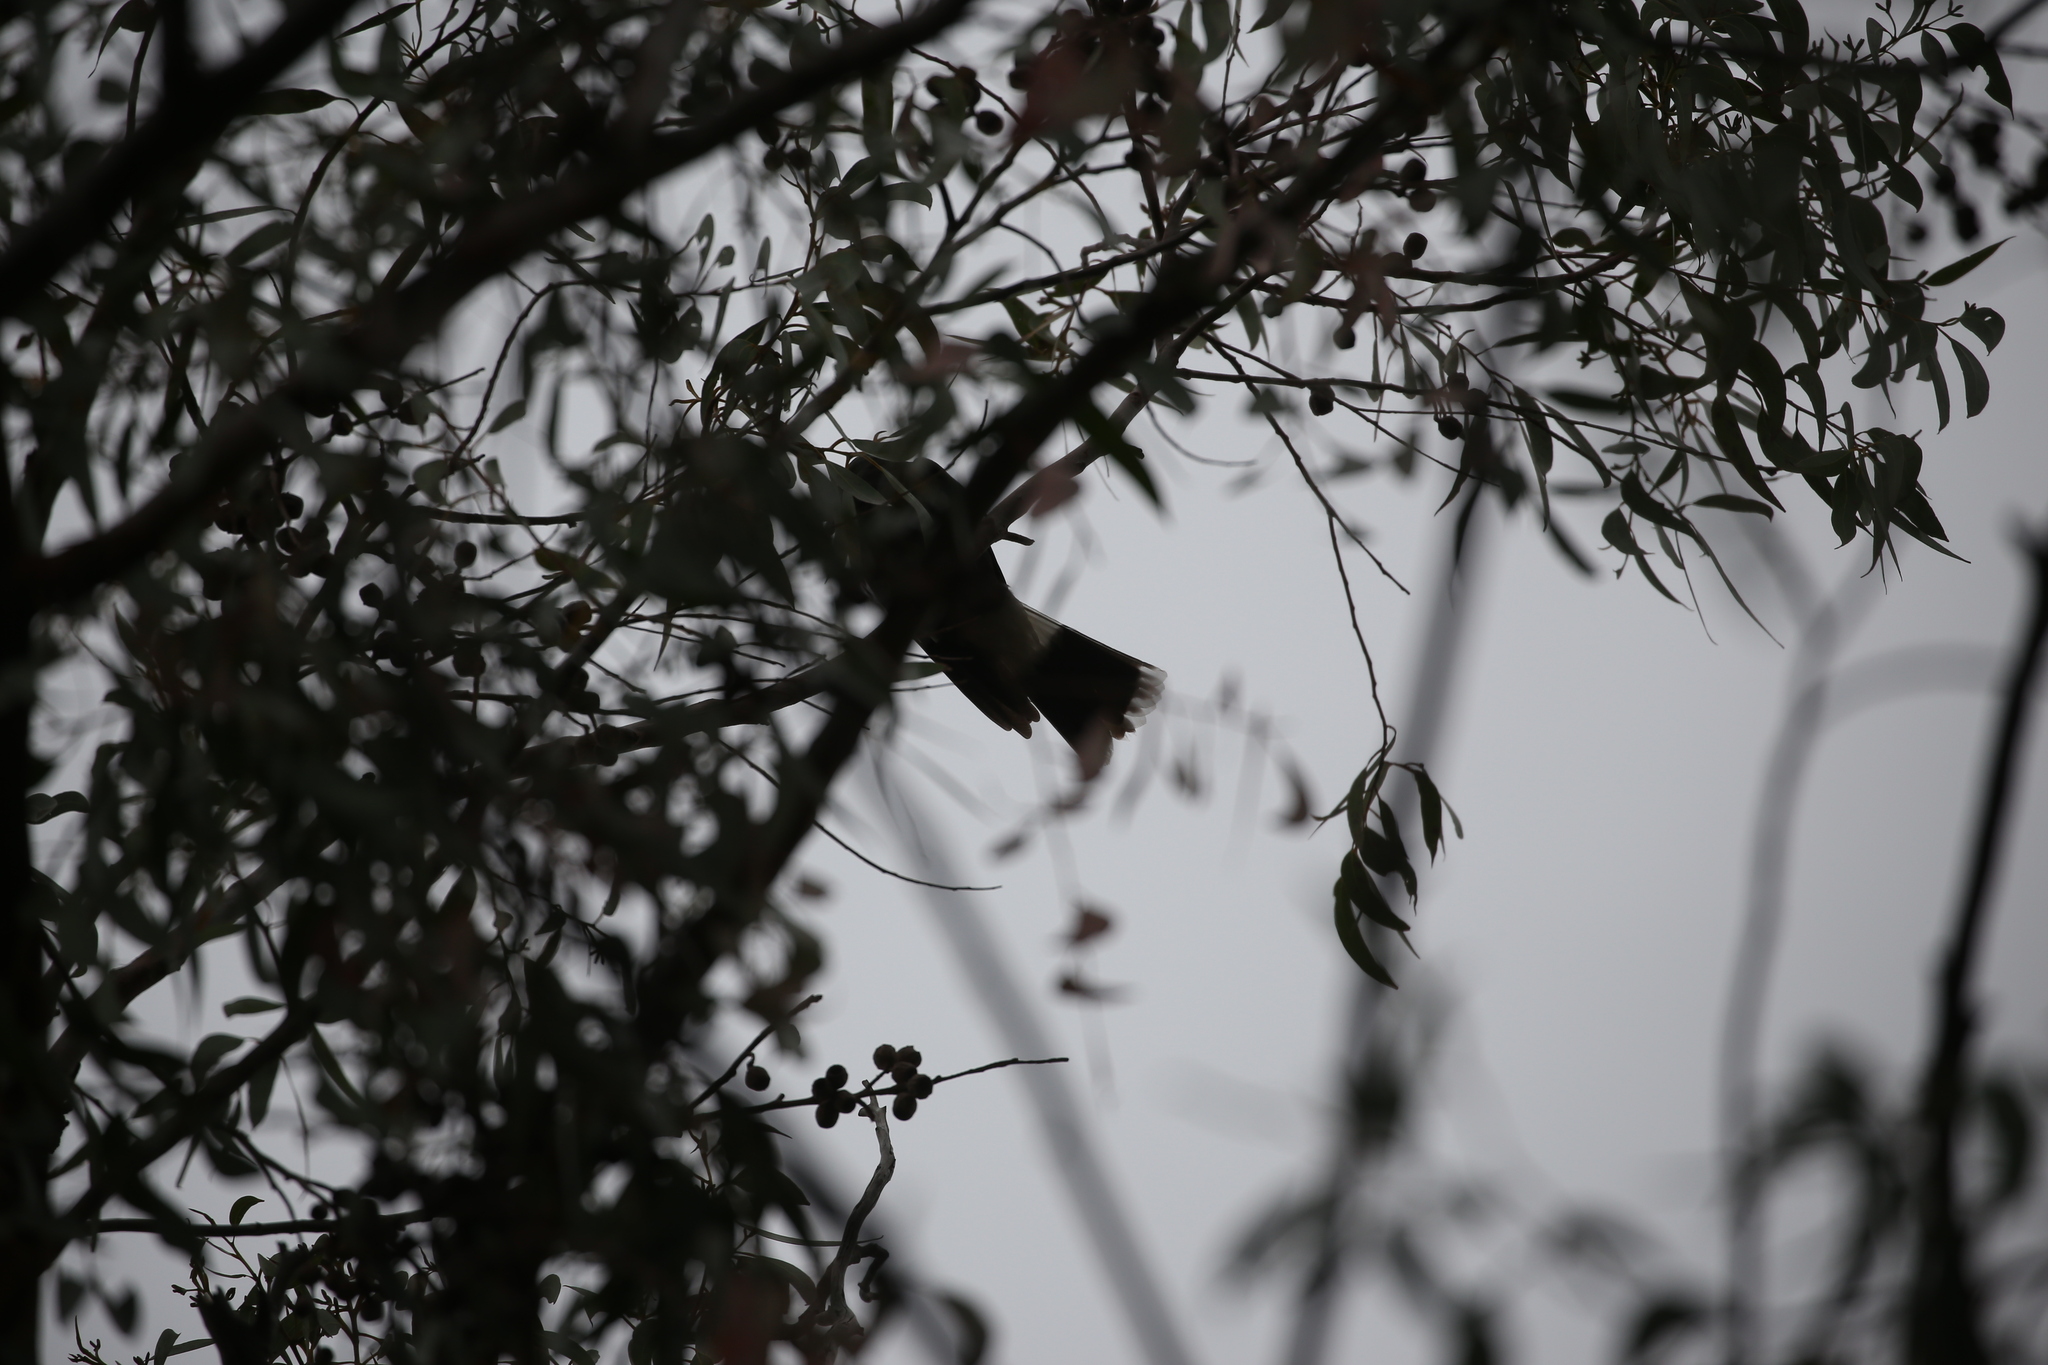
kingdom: Animalia
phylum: Chordata
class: Aves
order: Passeriformes
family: Cracticidae
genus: Strepera
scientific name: Strepera graculina
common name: Pied currawong
